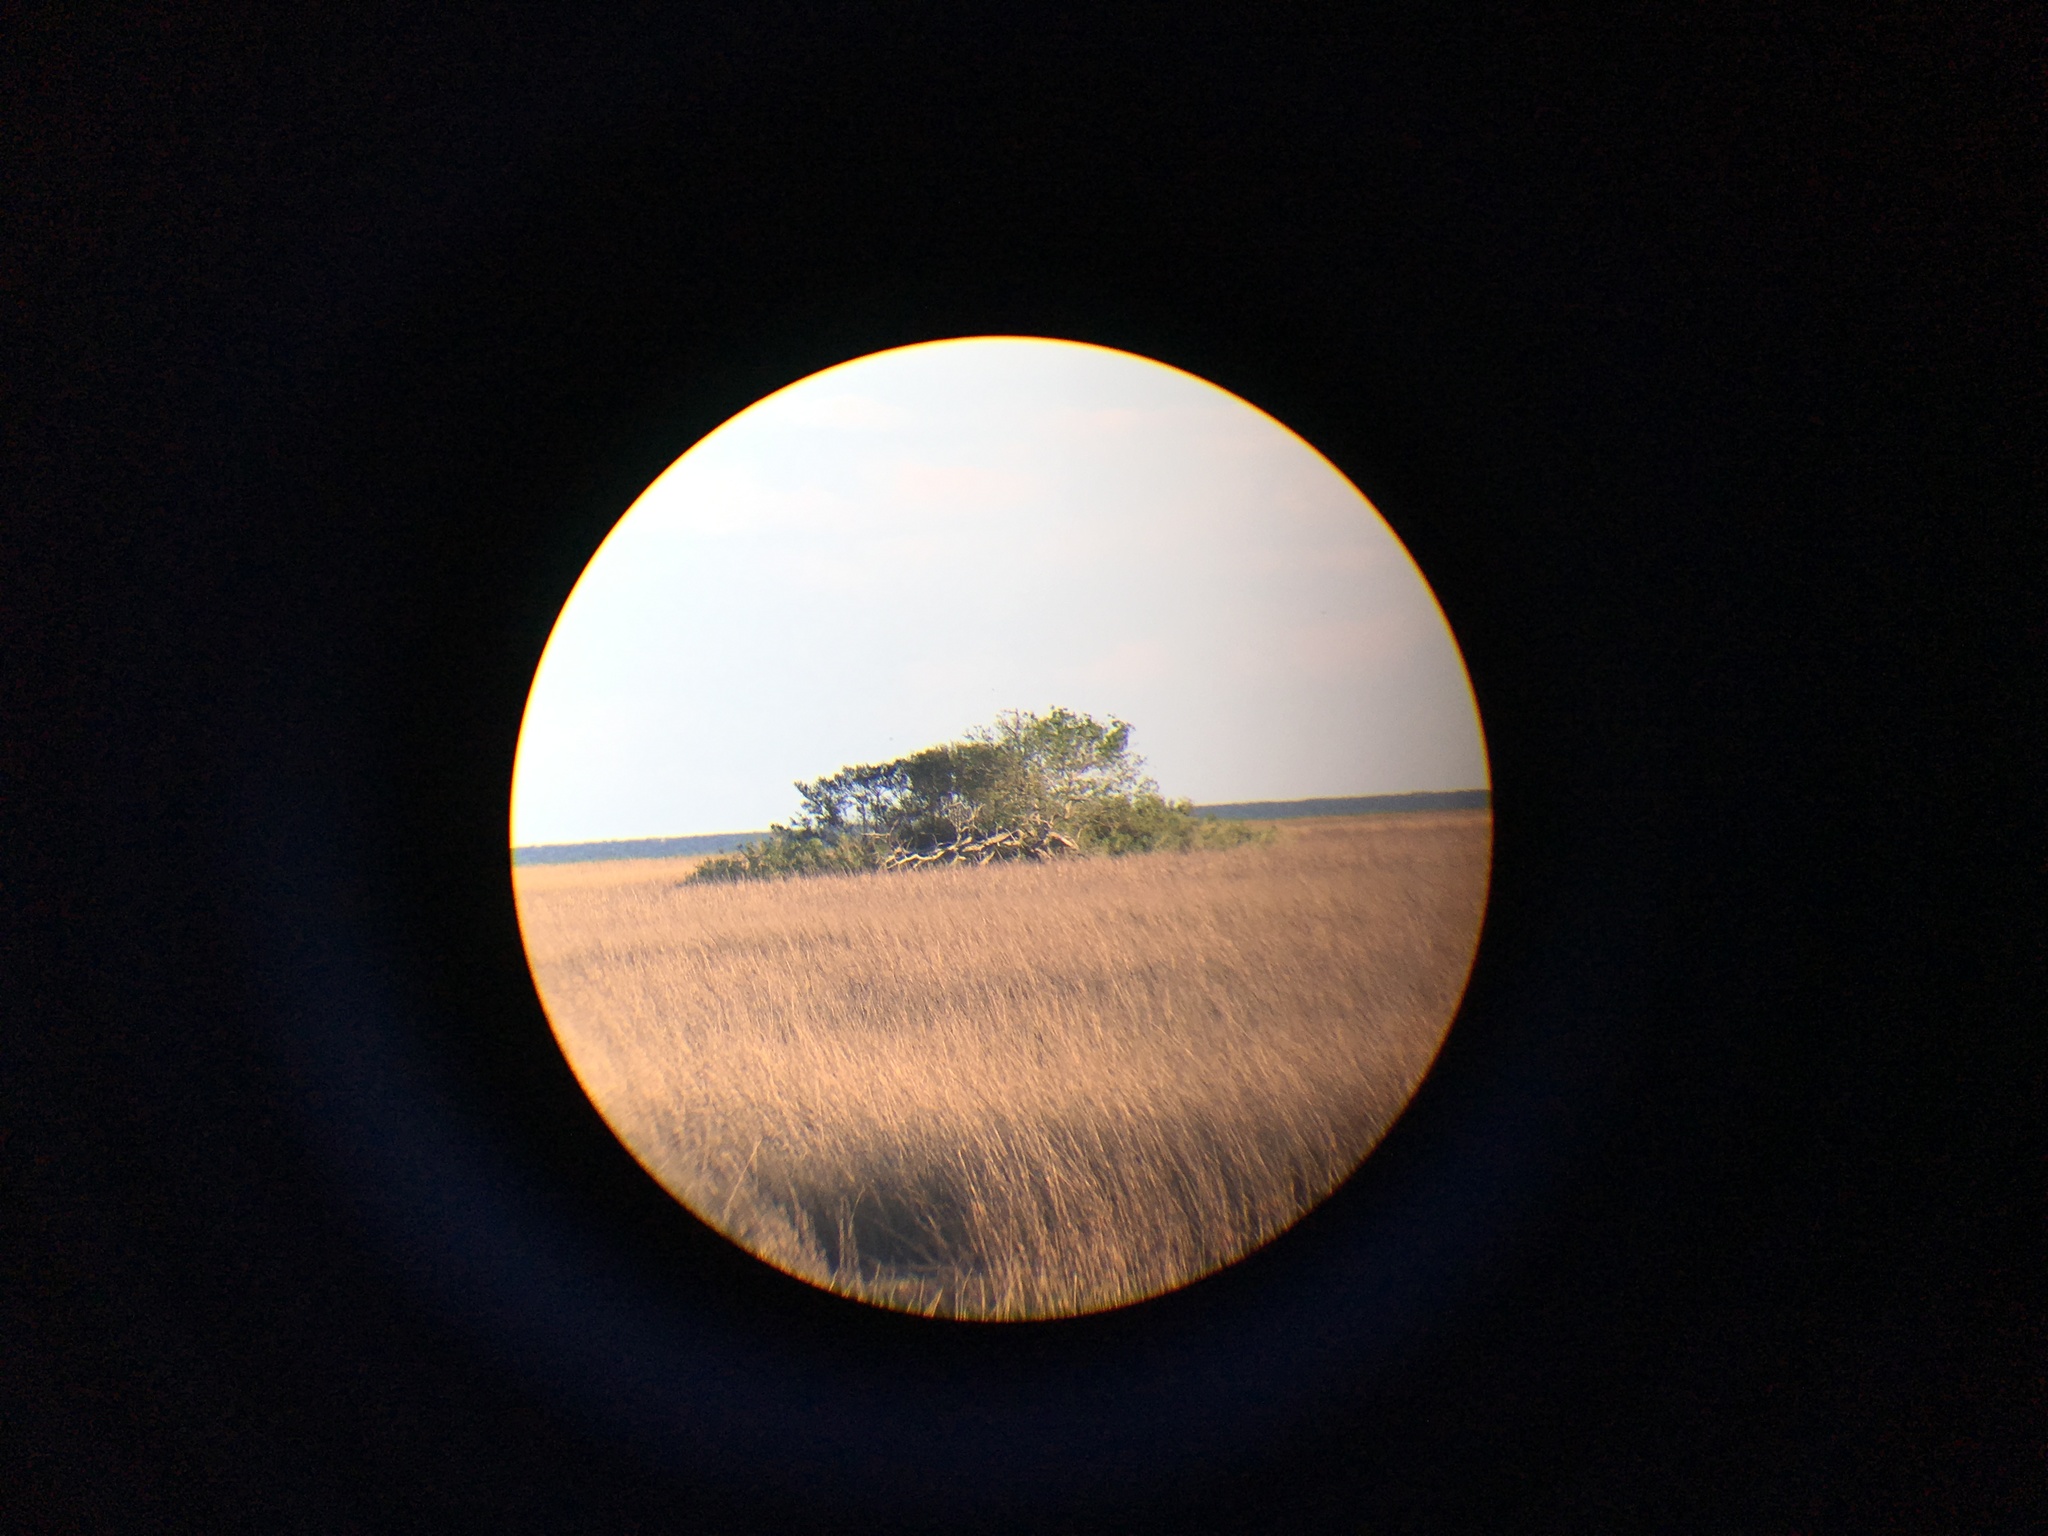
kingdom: Plantae
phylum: Tracheophyta
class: Liliopsida
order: Poales
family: Poaceae
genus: Sporobolus
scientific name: Sporobolus alterniflorus
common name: Atlantic cordgrass
